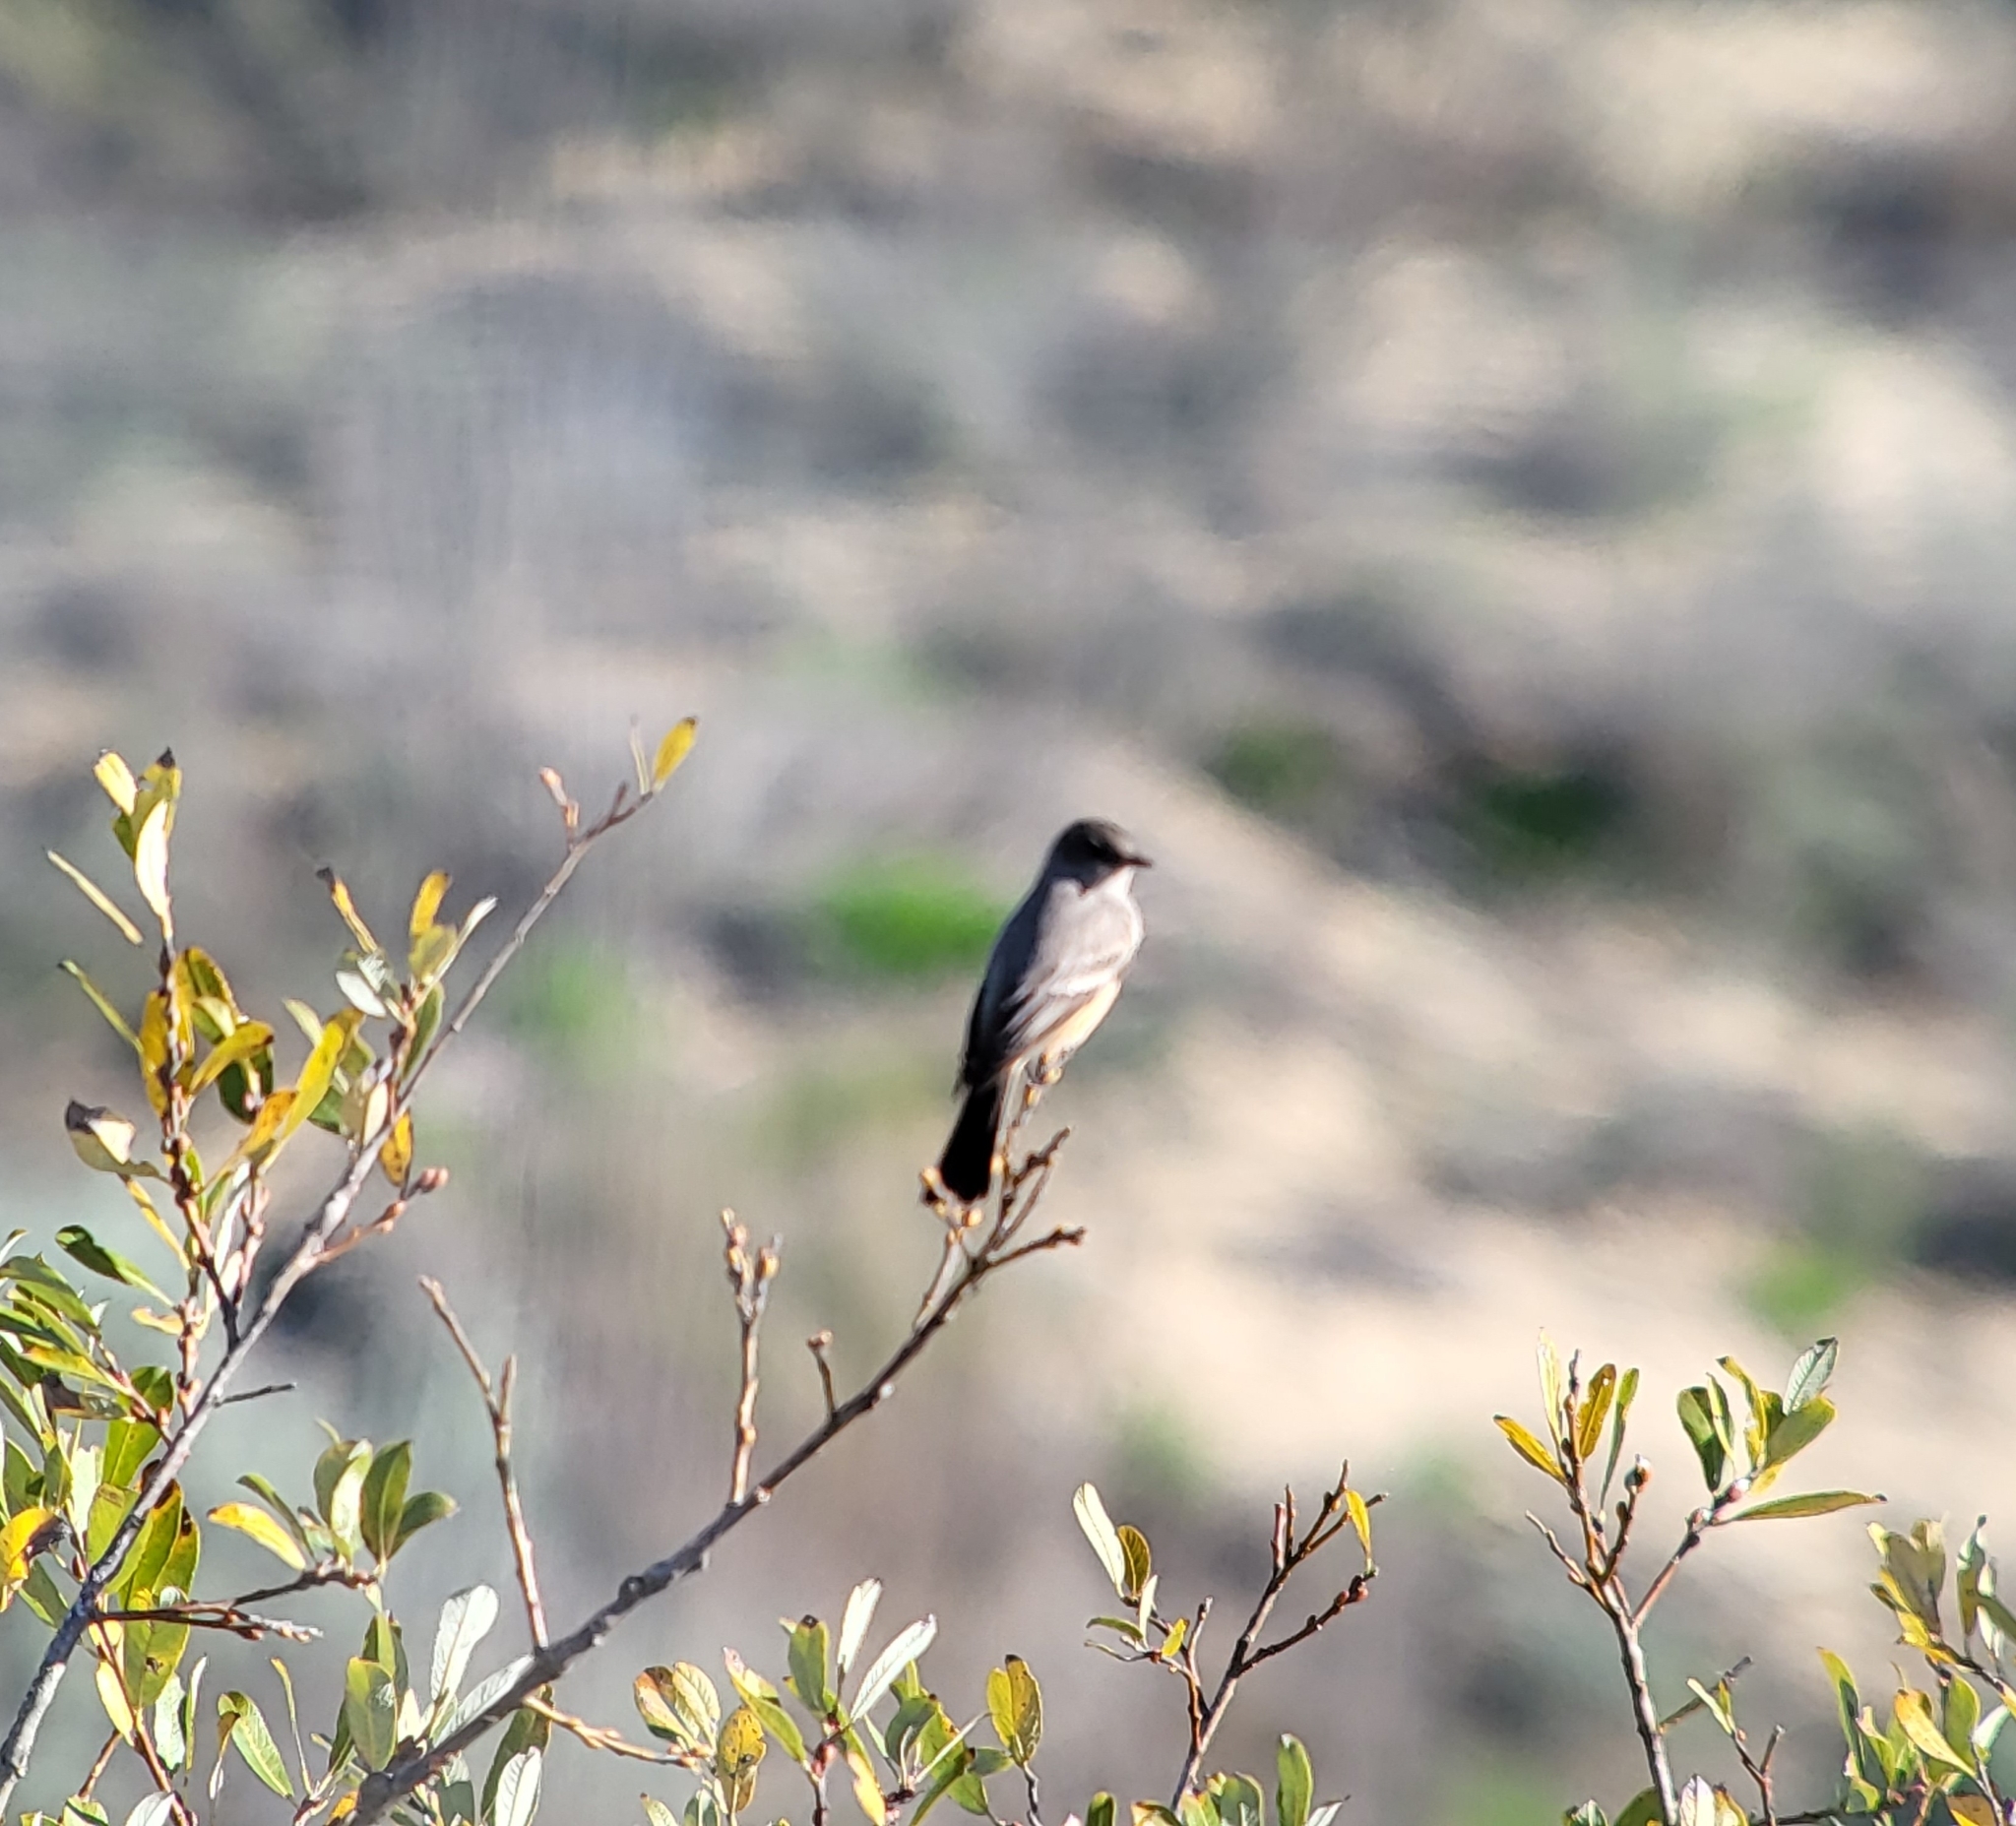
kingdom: Animalia
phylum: Chordata
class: Aves
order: Passeriformes
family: Tyrannidae
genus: Sayornis
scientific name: Sayornis saya
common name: Say's phoebe
